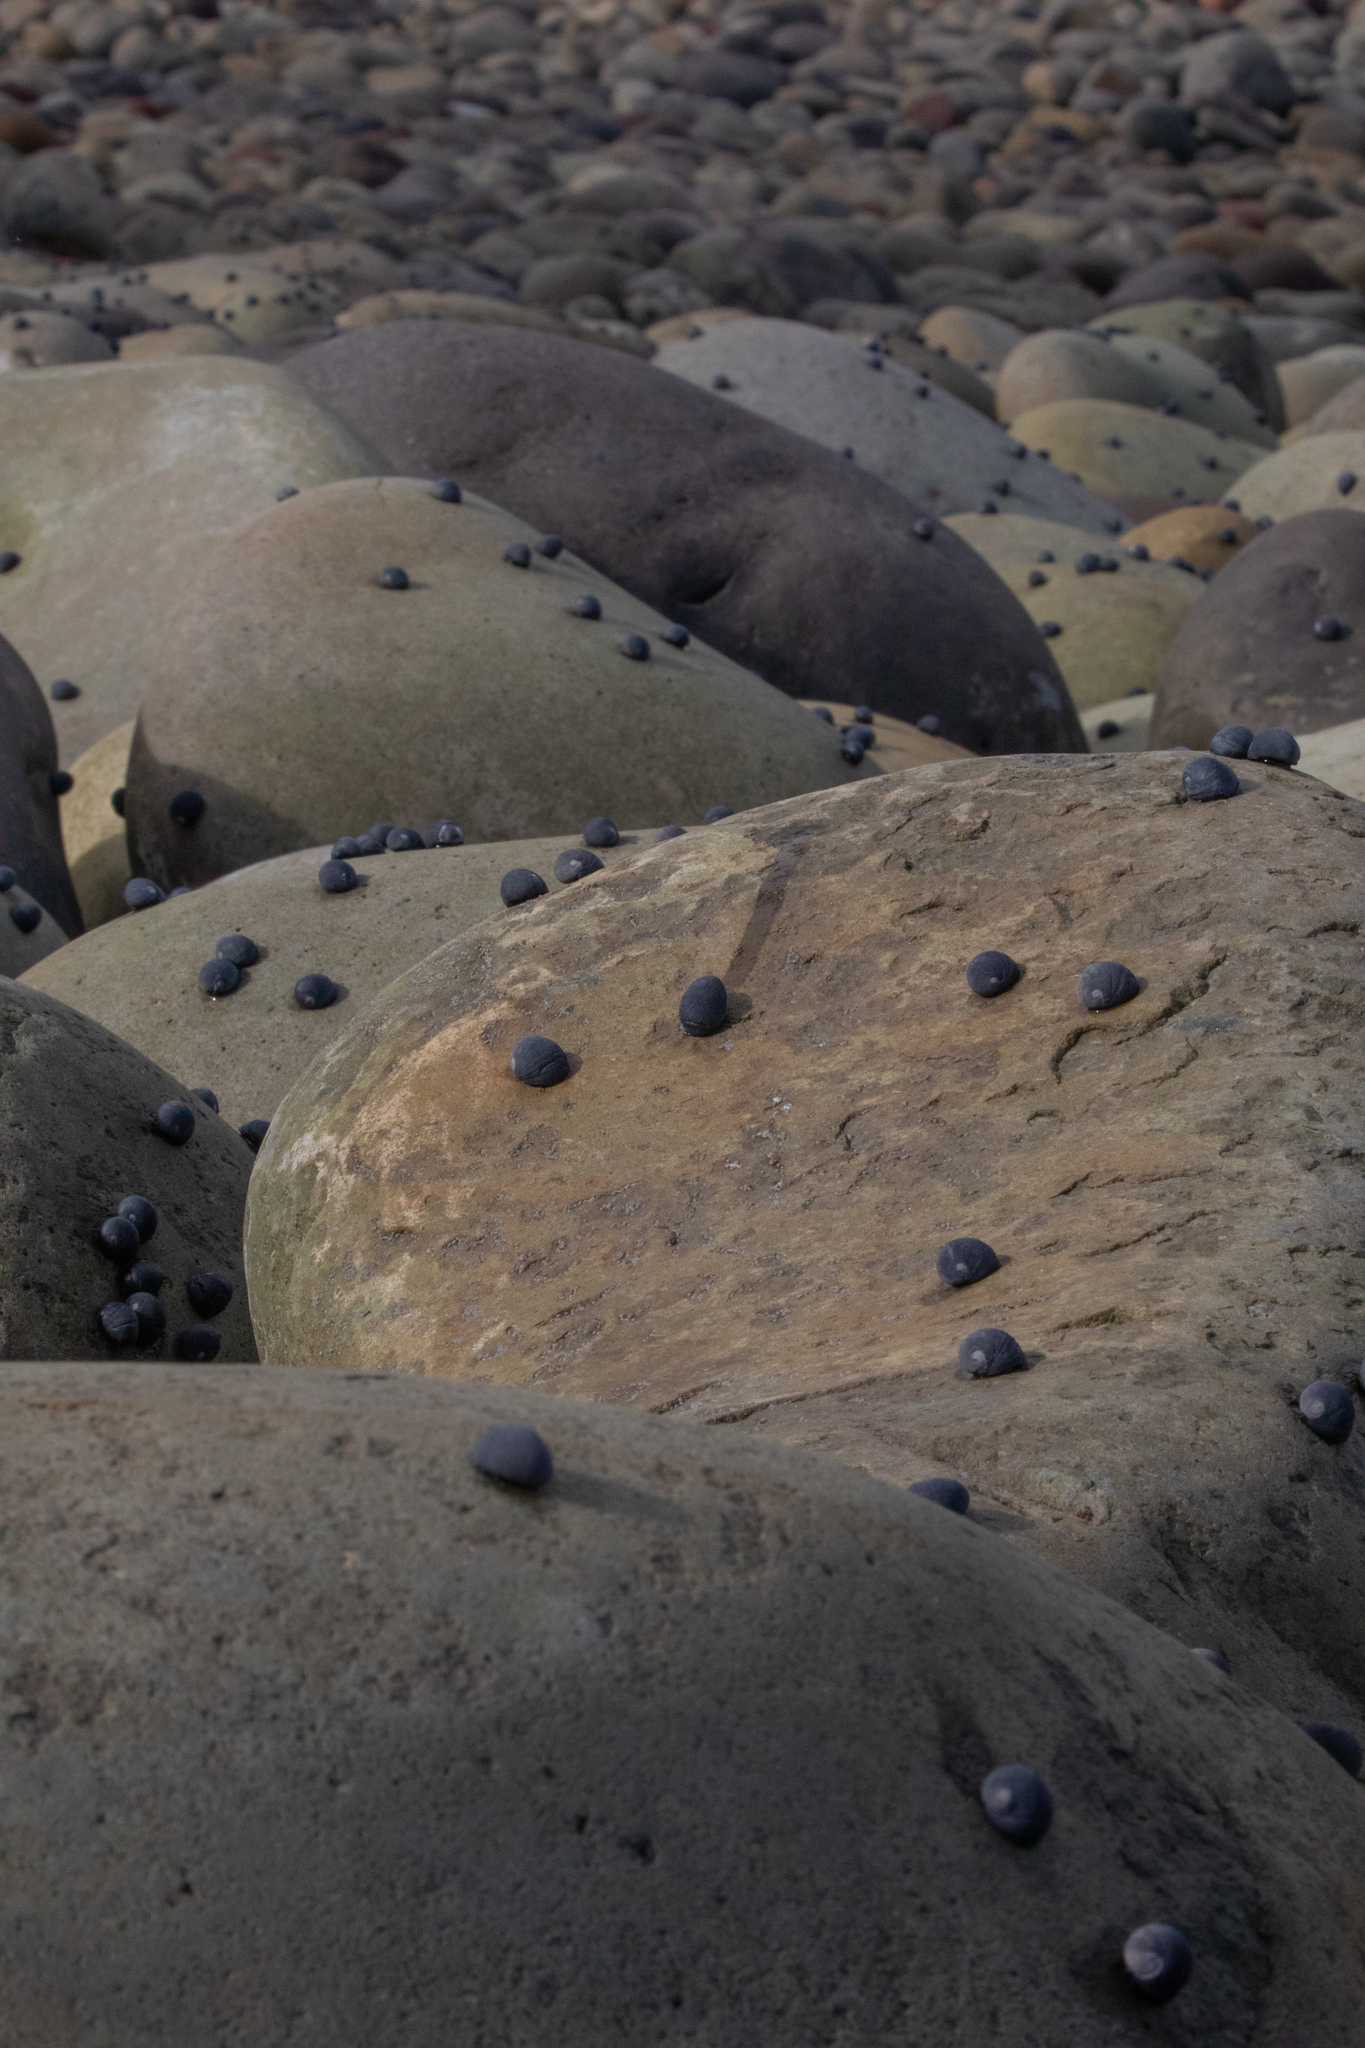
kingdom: Animalia
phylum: Mollusca
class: Gastropoda
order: Cycloneritida
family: Neritidae
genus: Nerita
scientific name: Nerita melanotragus
